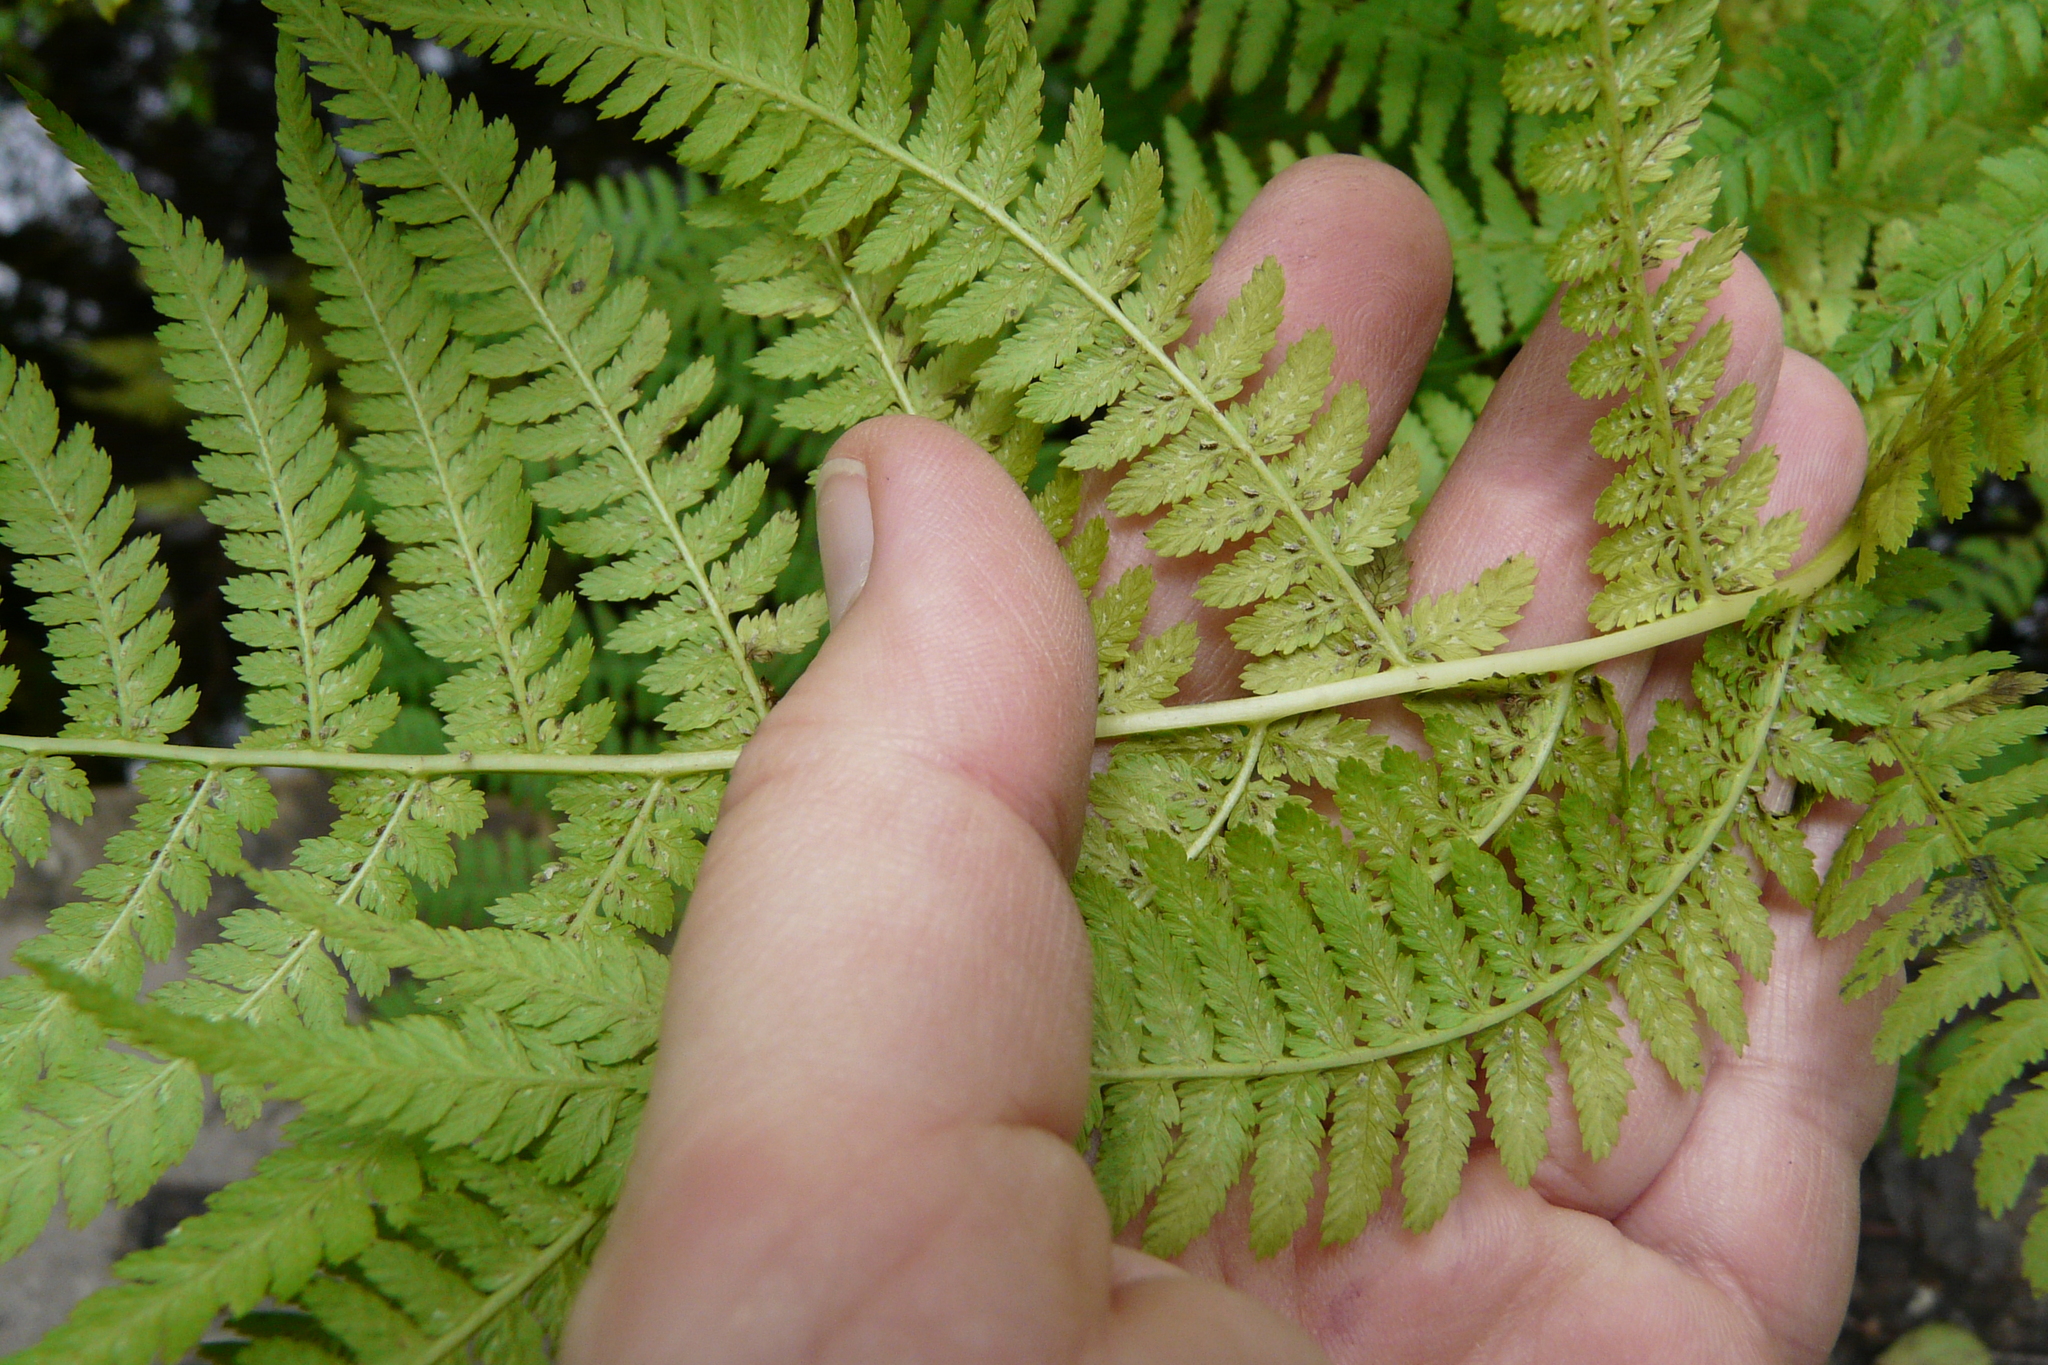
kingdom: Plantae
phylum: Tracheophyta
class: Polypodiopsida
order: Polypodiales
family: Athyriaceae
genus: Athyrium
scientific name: Athyrium filix-femina
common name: Lady fern
